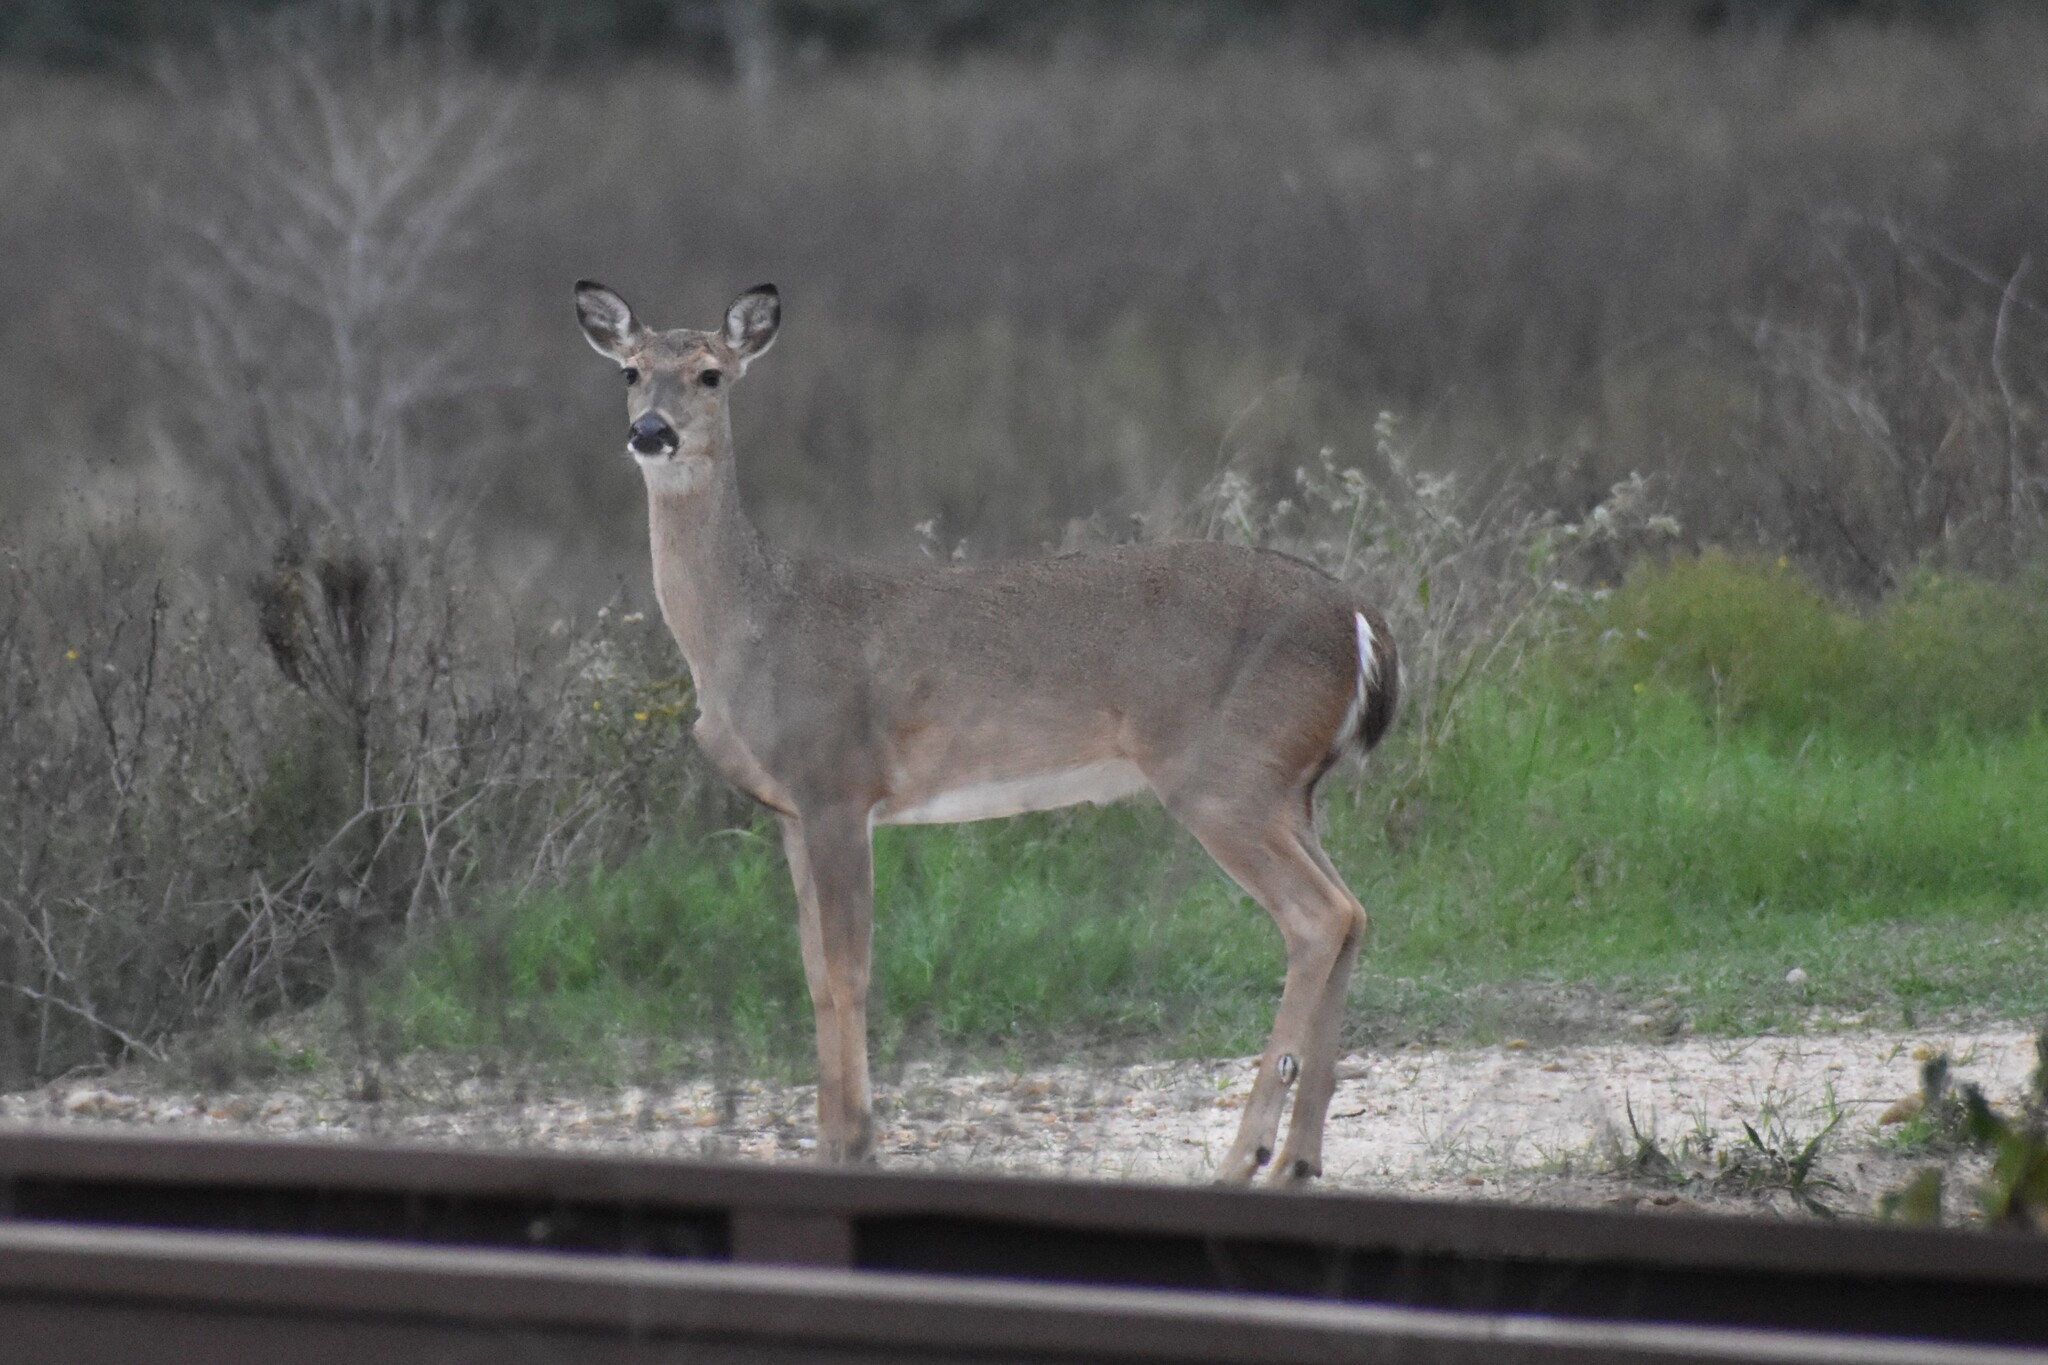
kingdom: Animalia
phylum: Chordata
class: Mammalia
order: Artiodactyla
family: Cervidae
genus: Odocoileus
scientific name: Odocoileus virginianus
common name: White-tailed deer
